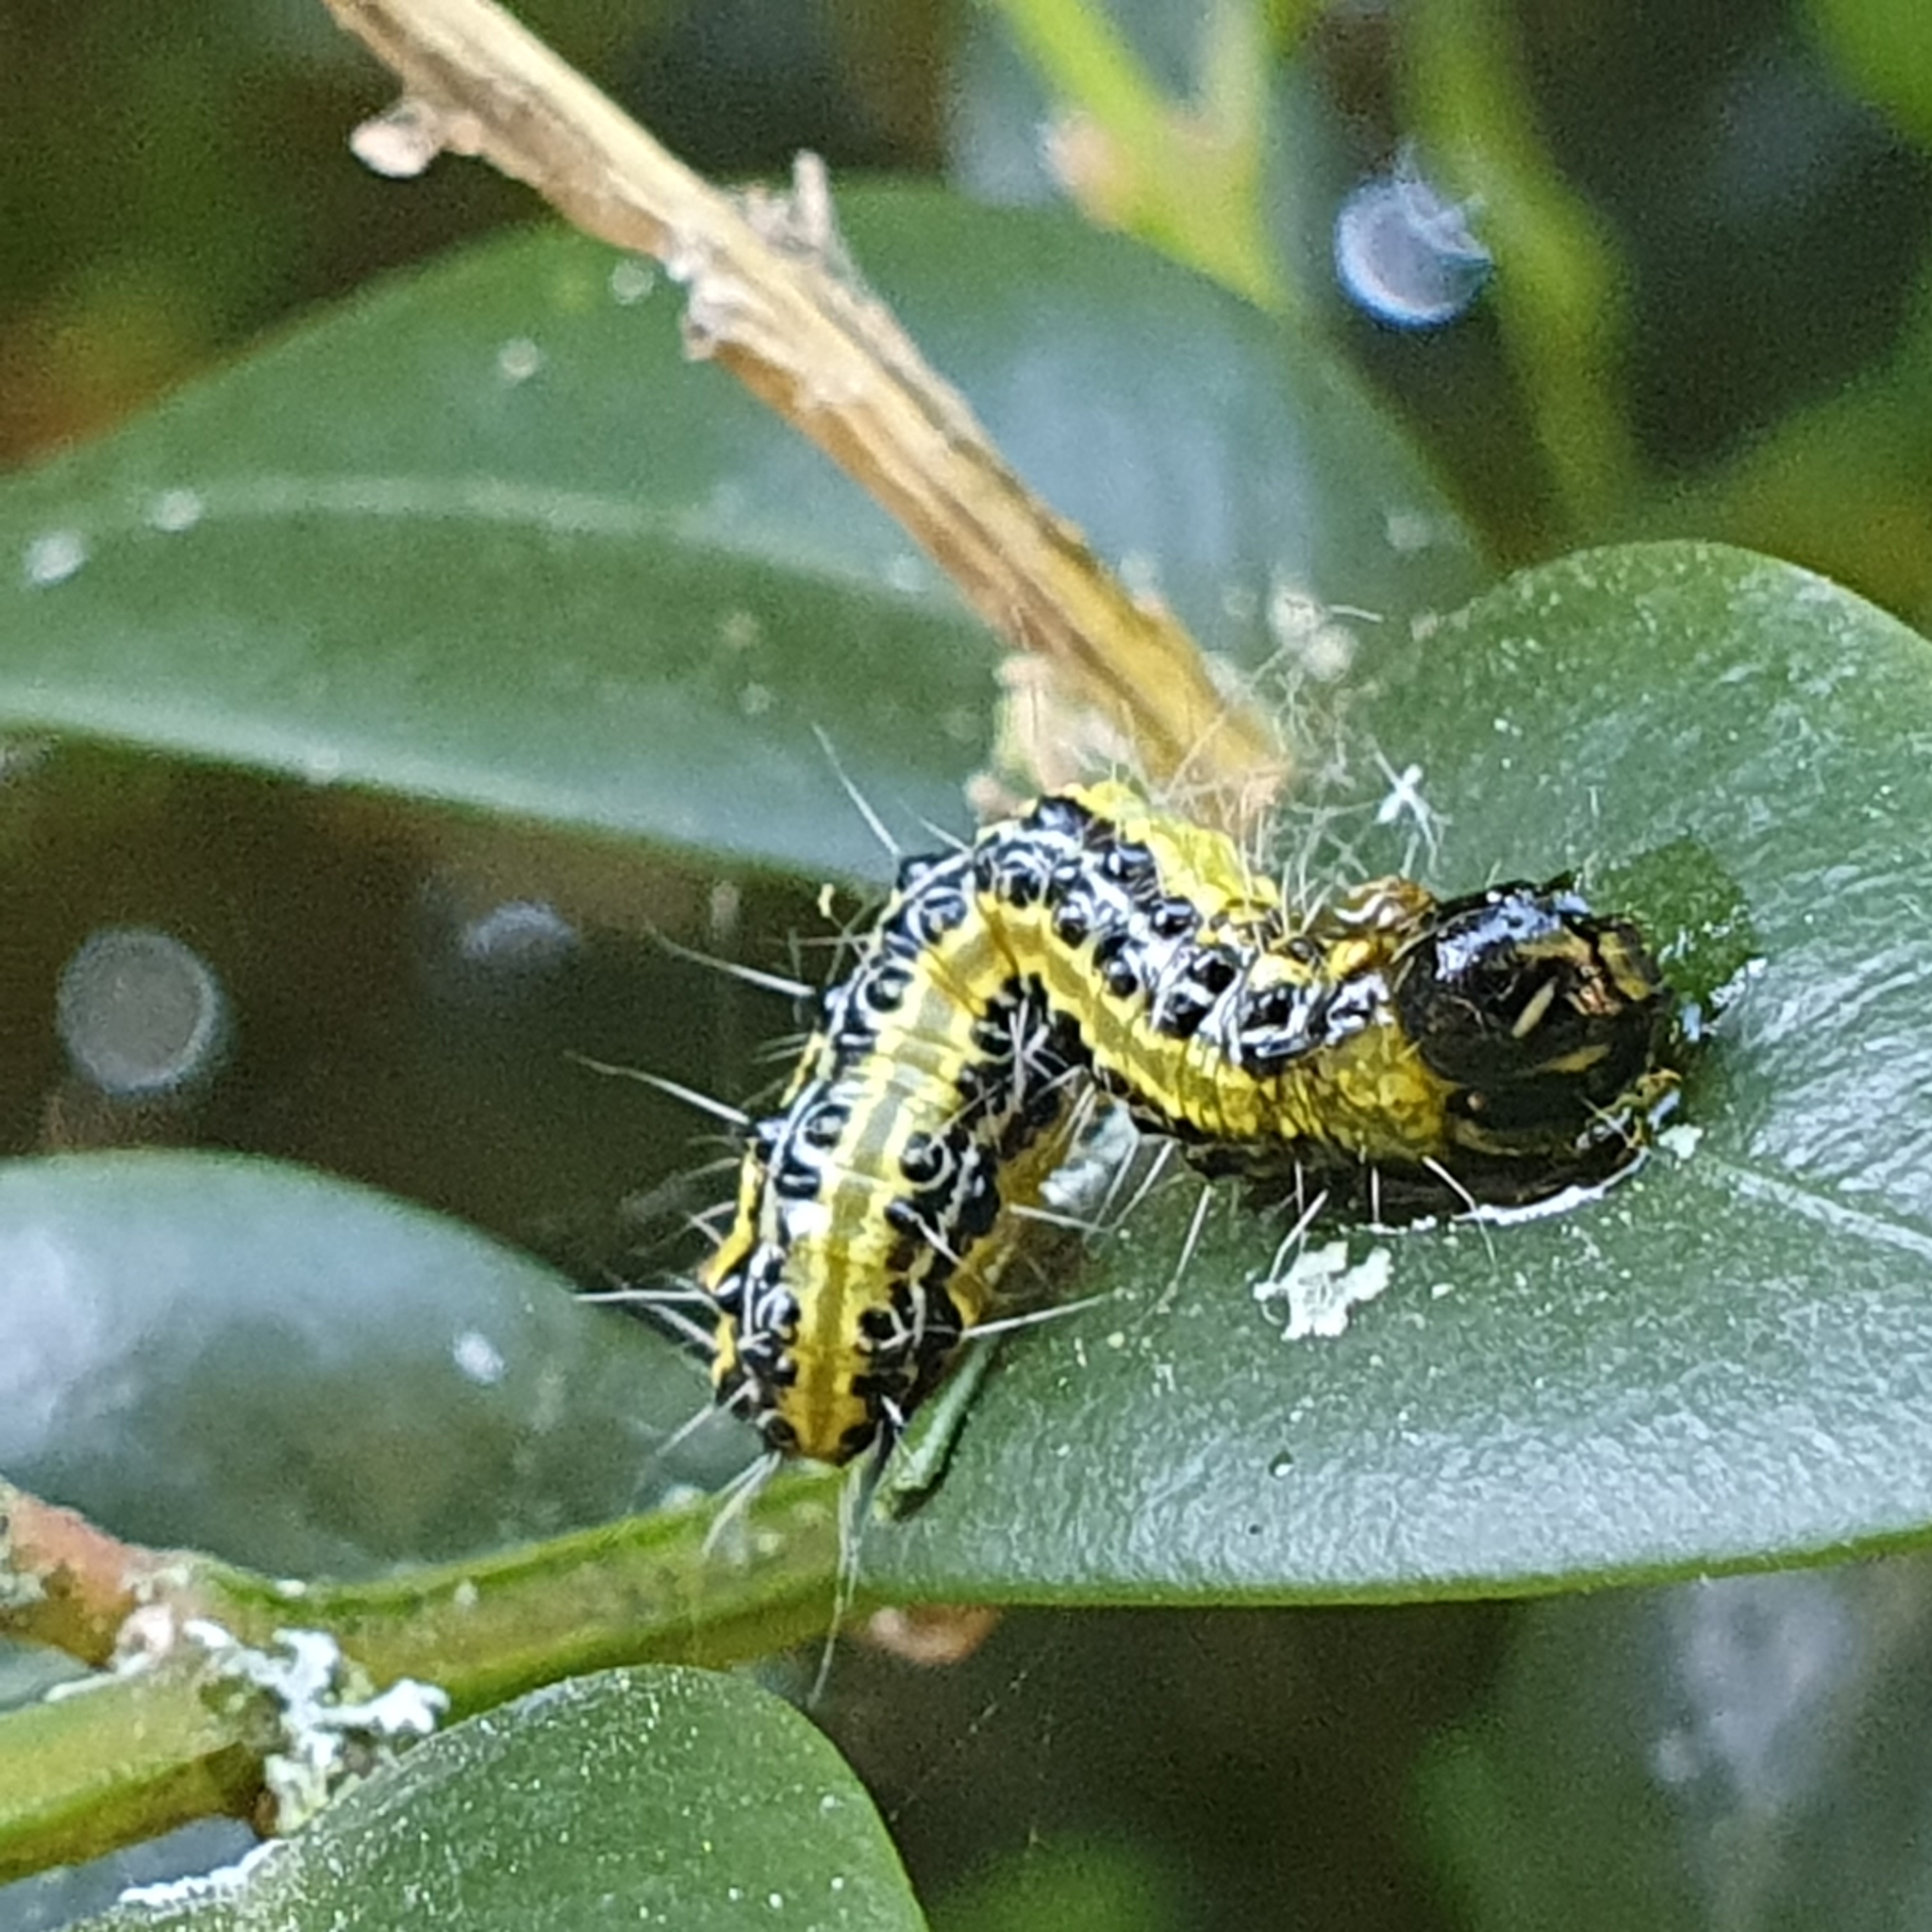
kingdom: Animalia
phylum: Arthropoda
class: Insecta
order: Lepidoptera
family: Crambidae
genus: Cydalima
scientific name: Cydalima perspectalis
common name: Box tree moth
